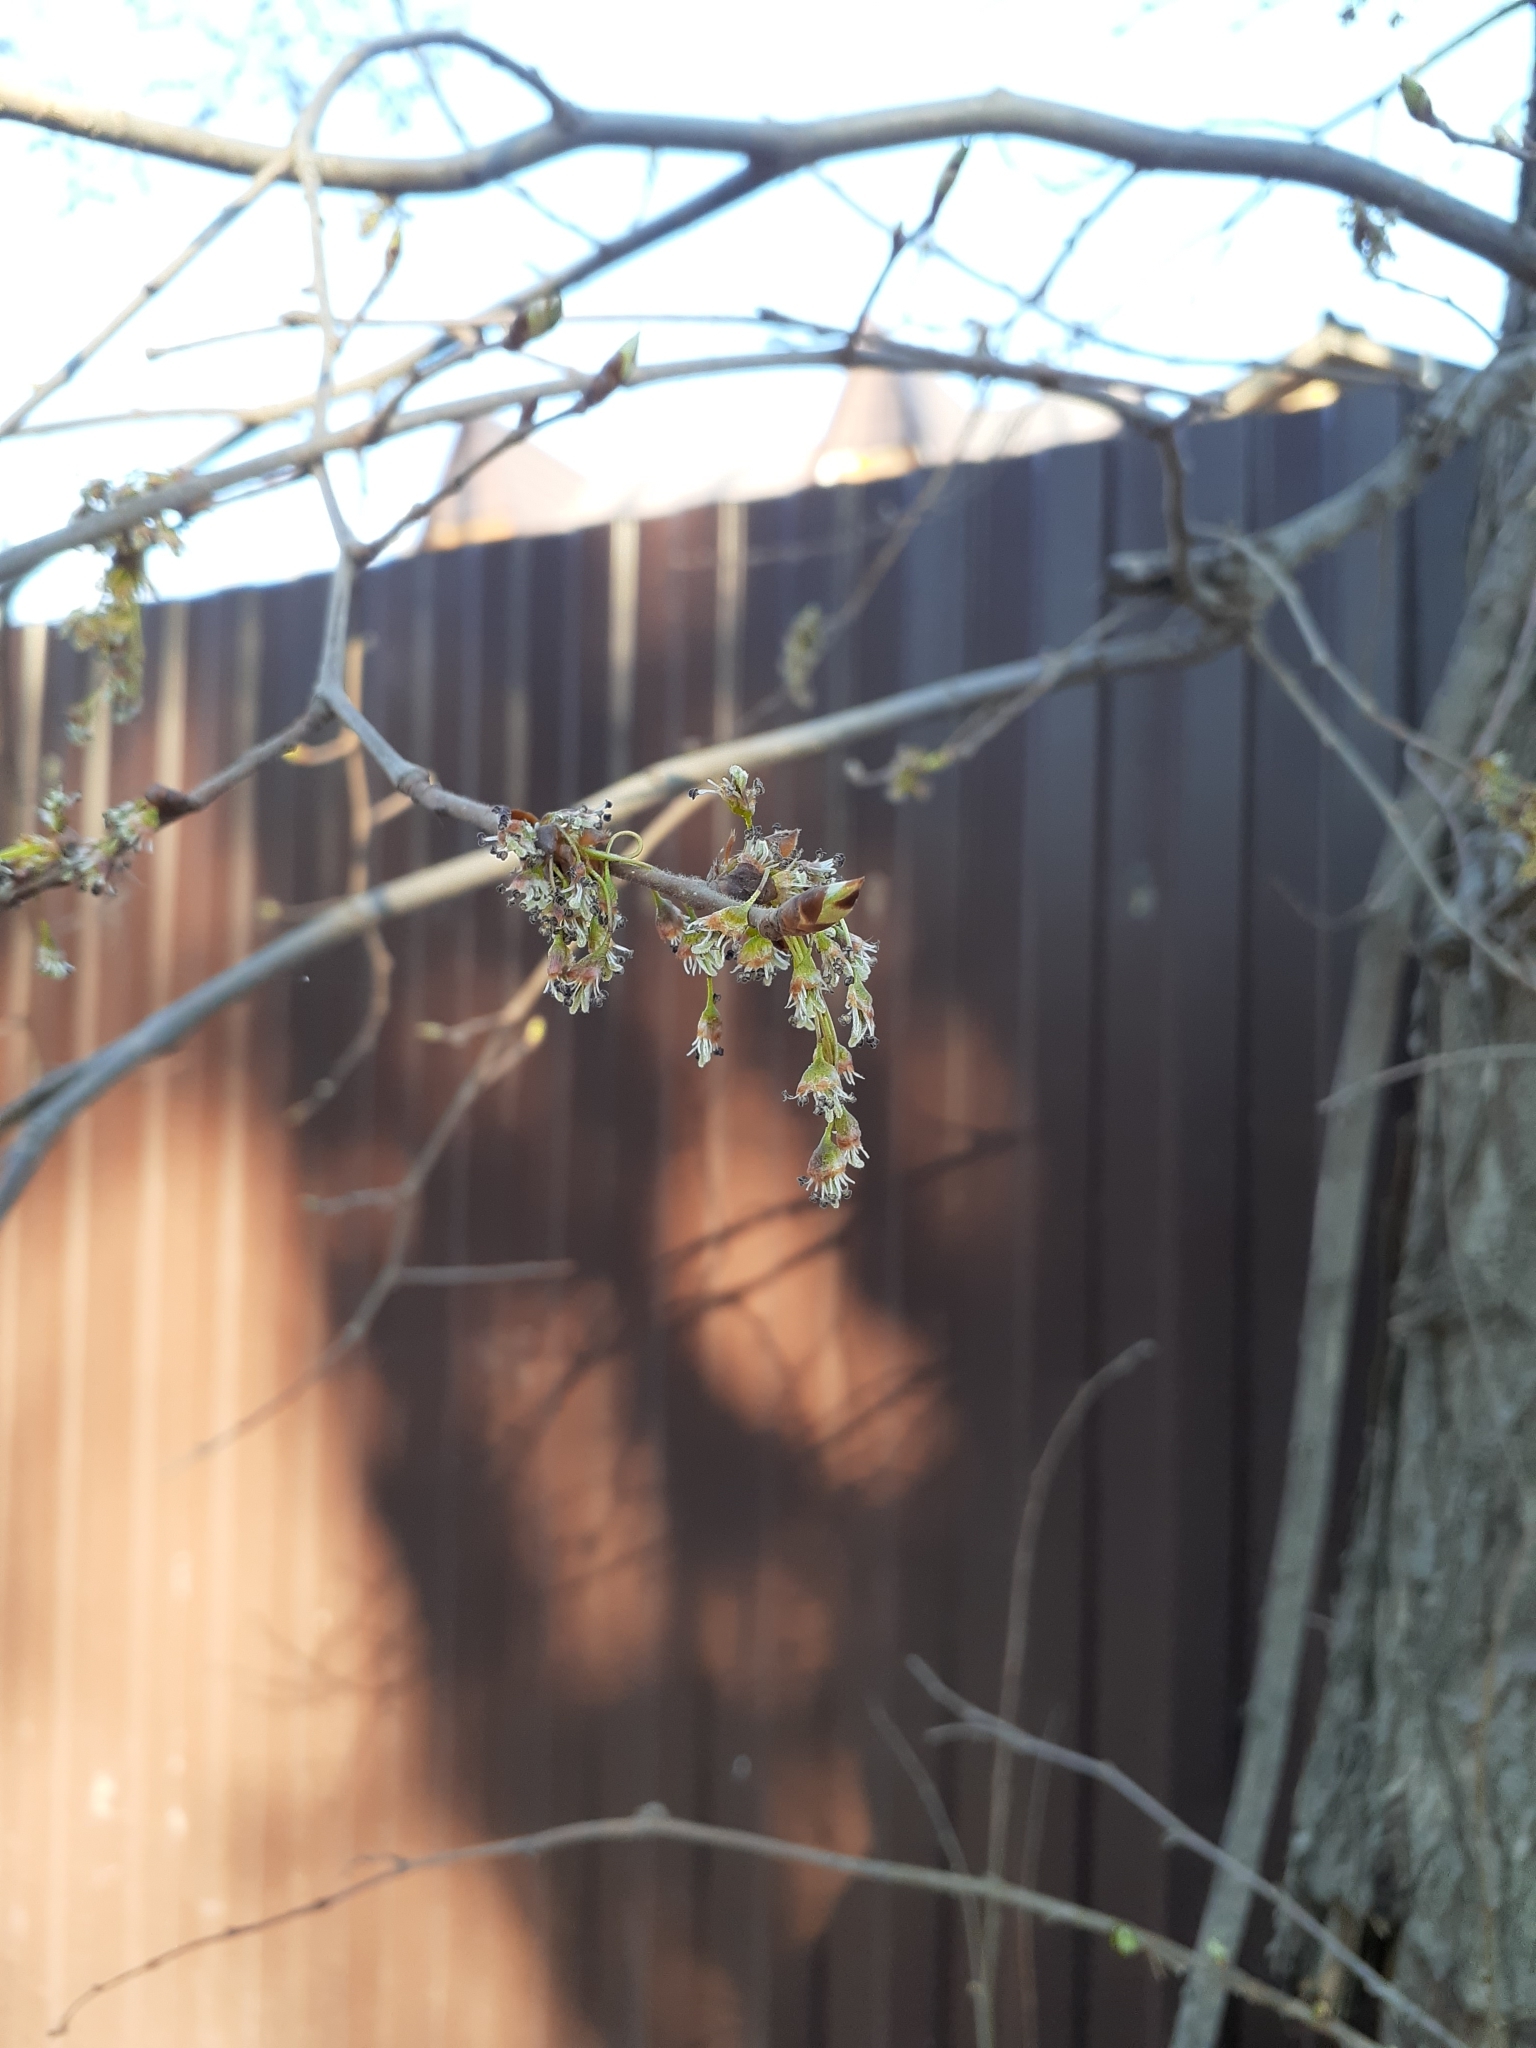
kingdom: Plantae
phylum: Tracheophyta
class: Magnoliopsida
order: Rosales
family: Ulmaceae
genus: Ulmus
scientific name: Ulmus laevis
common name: European white-elm
